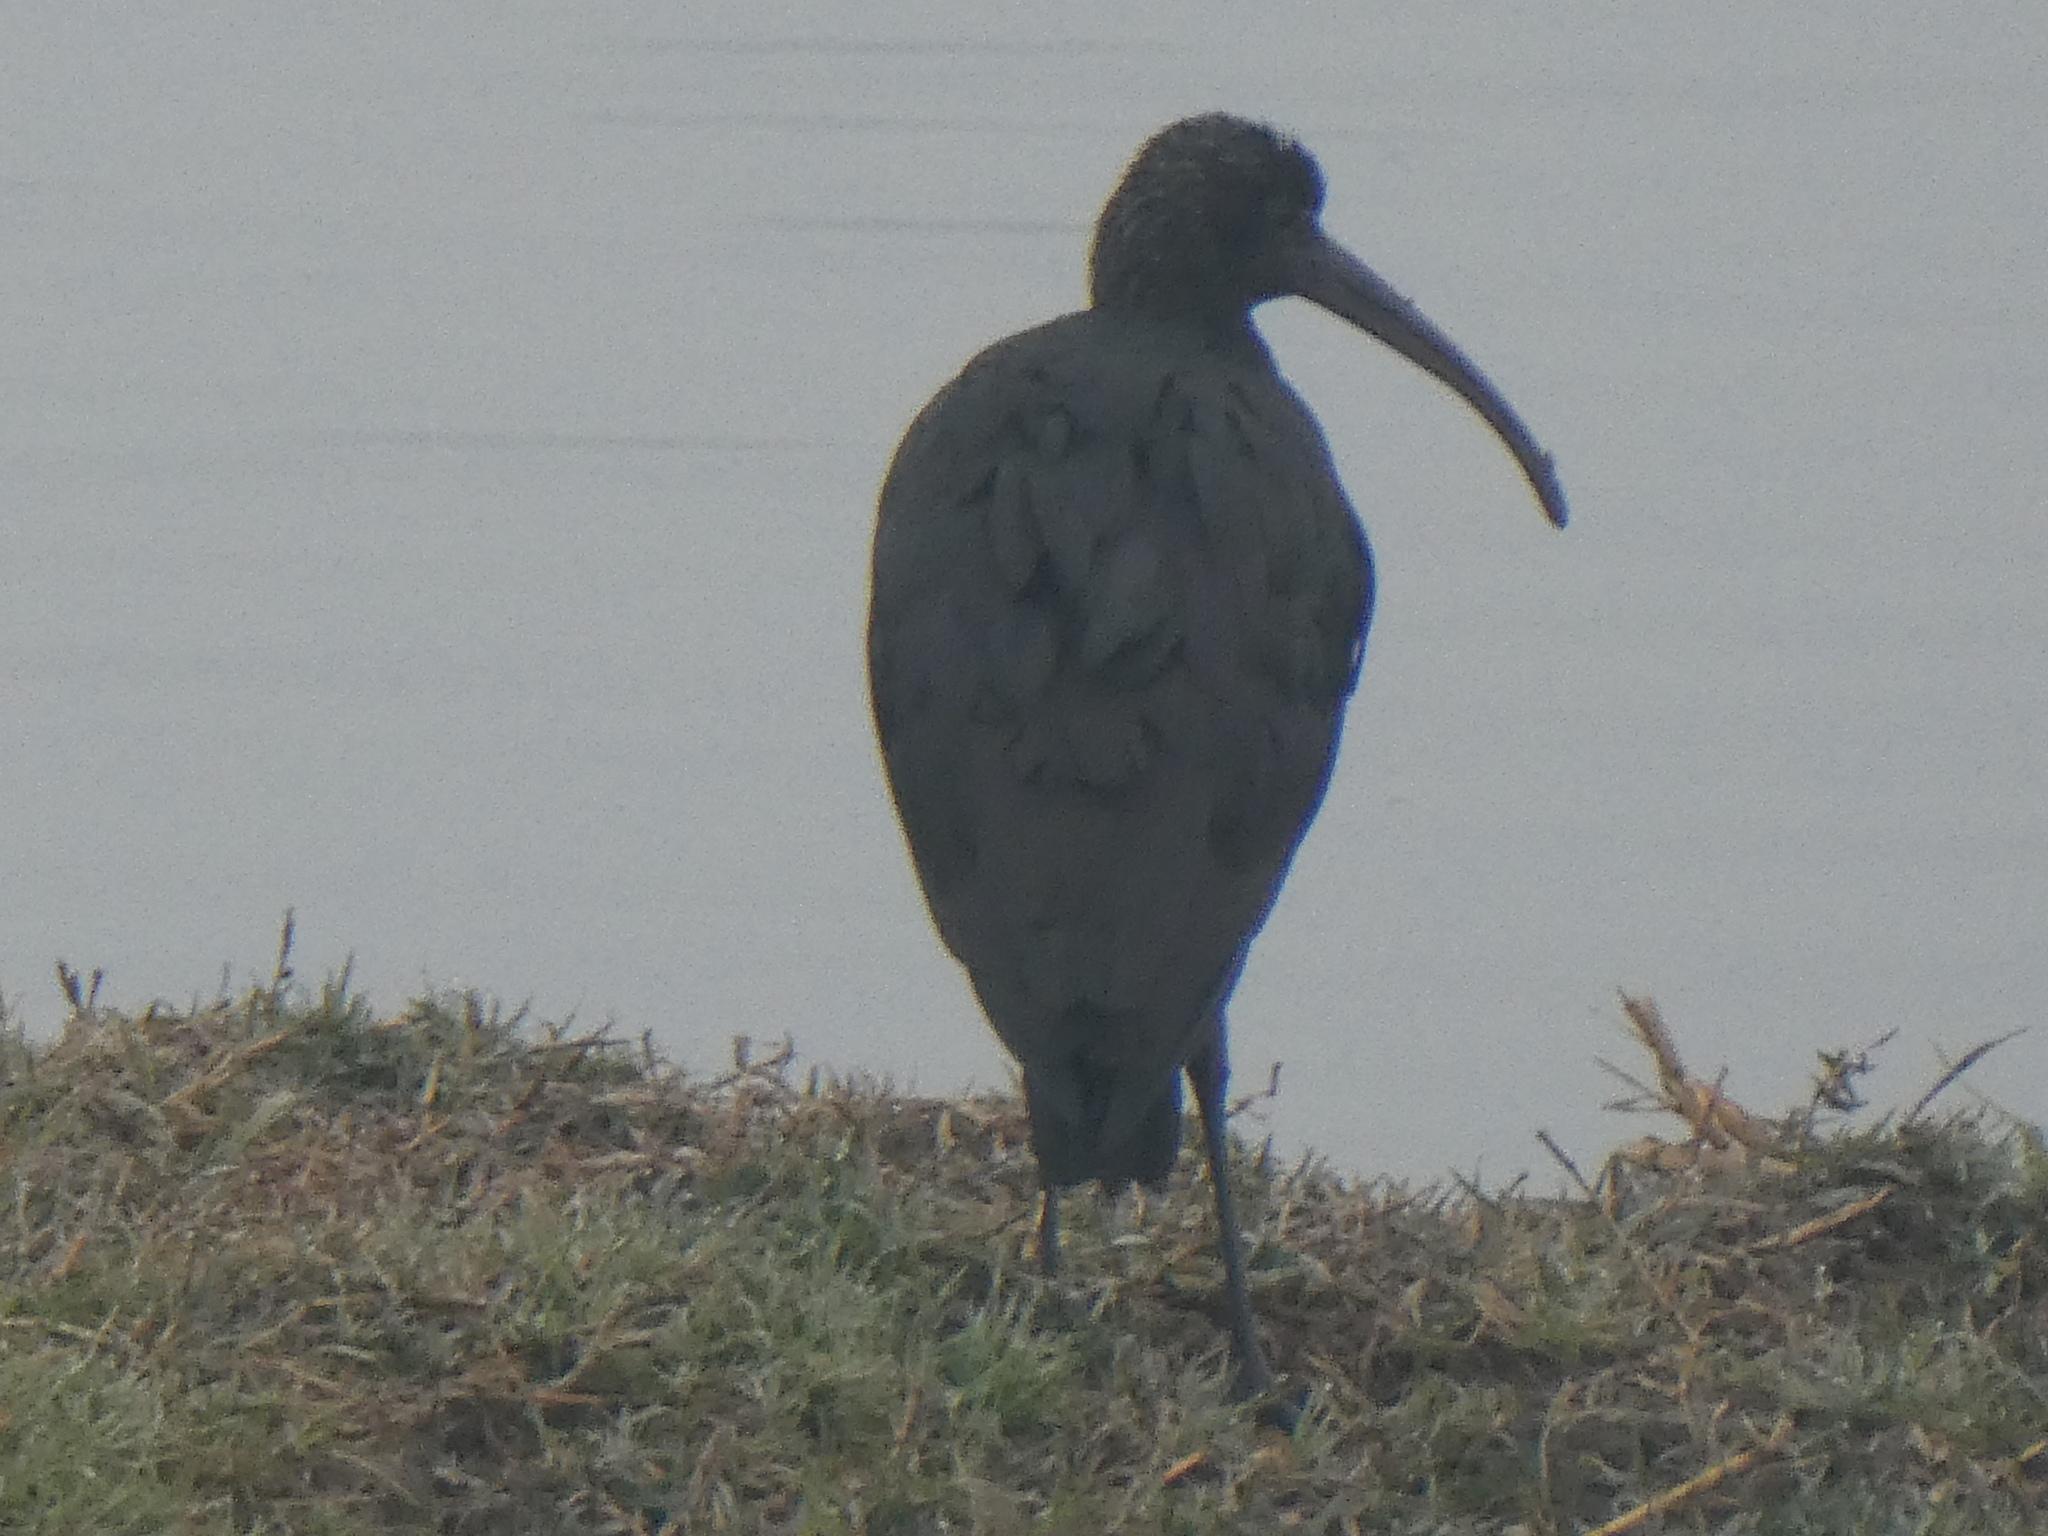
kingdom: Animalia
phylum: Chordata
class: Aves
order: Pelecaniformes
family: Threskiornithidae
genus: Plegadis
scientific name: Plegadis falcinellus
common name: Glossy ibis
